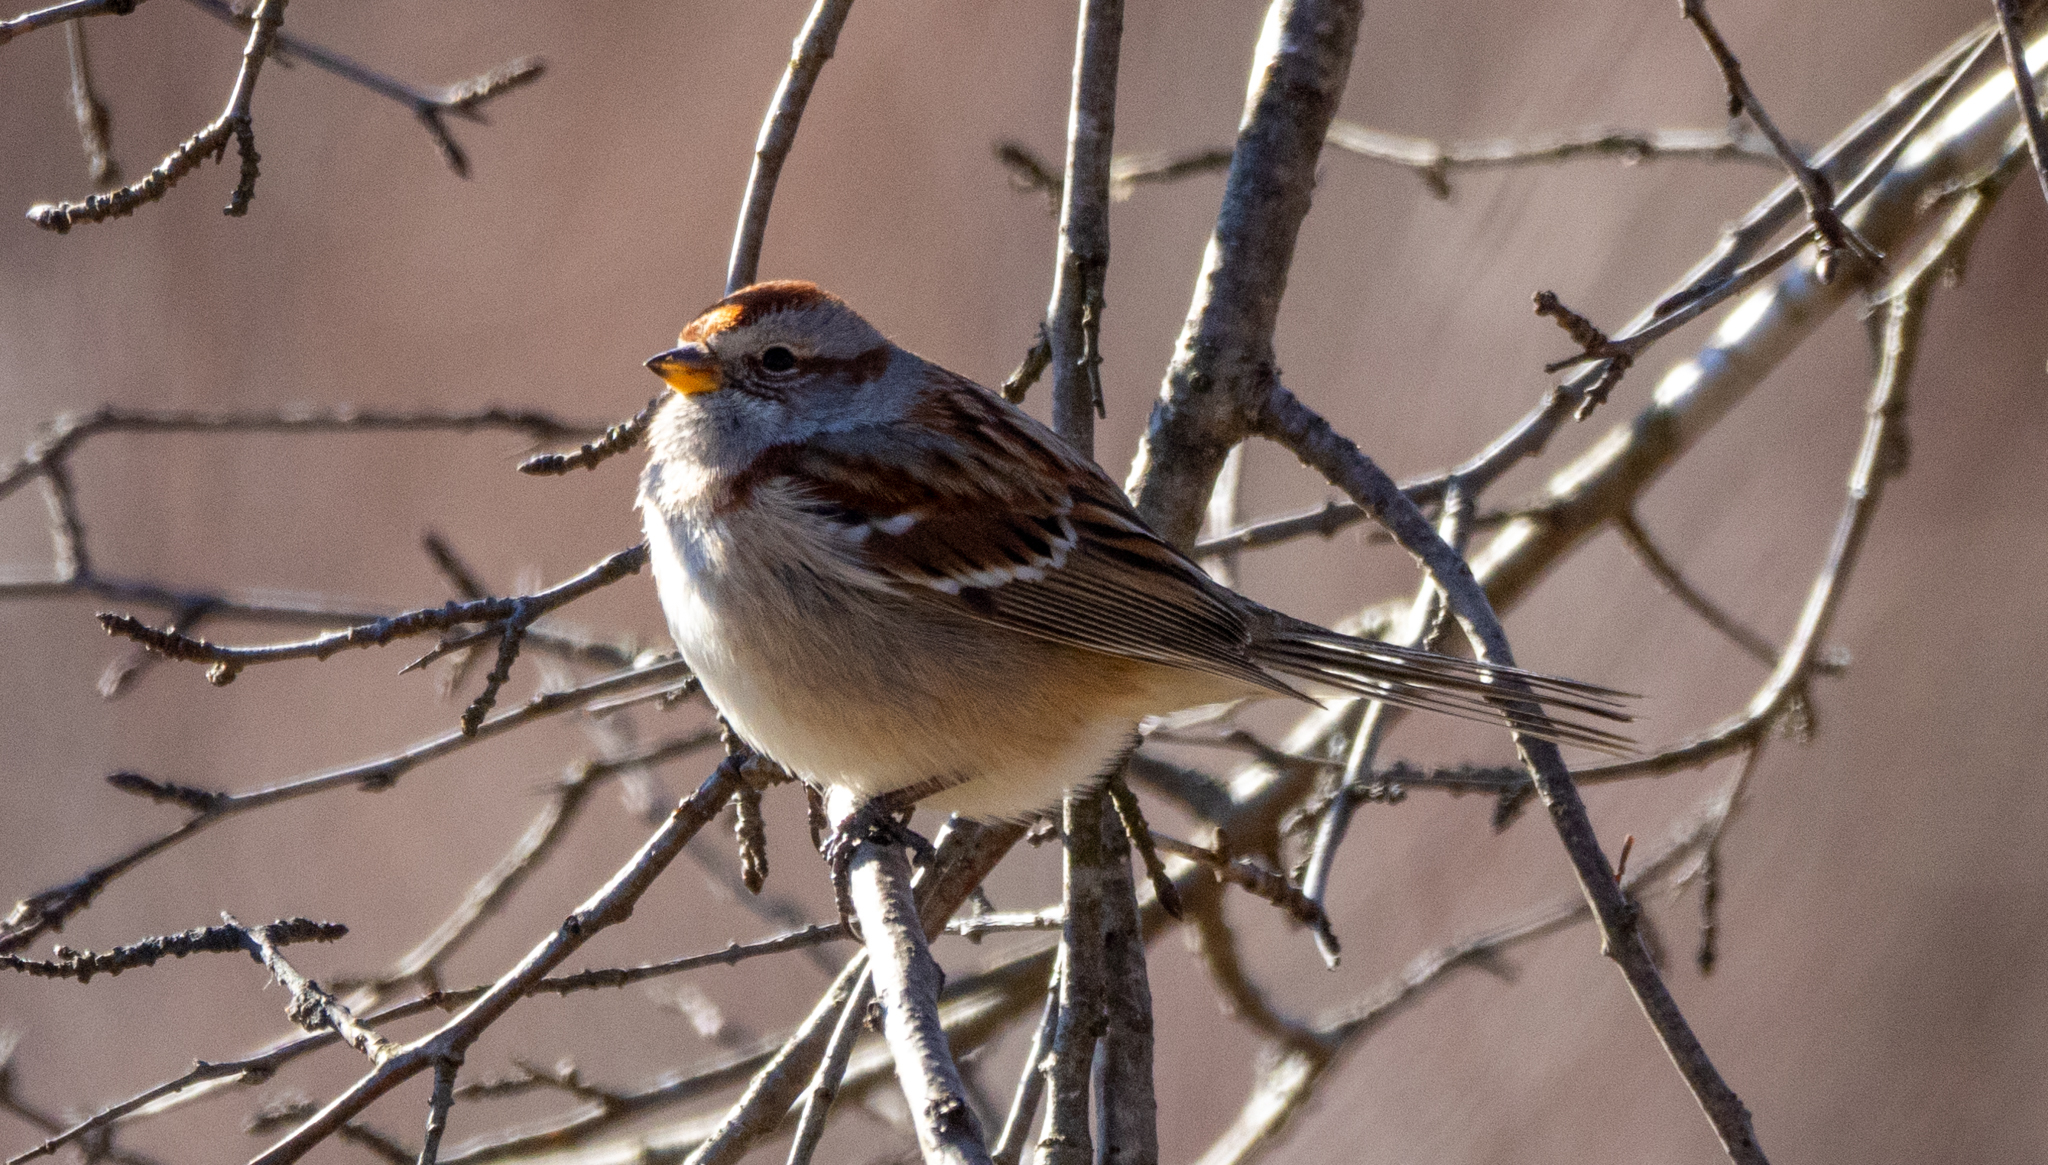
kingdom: Animalia
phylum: Chordata
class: Aves
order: Passeriformes
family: Passerellidae
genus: Spizelloides
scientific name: Spizelloides arborea
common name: American tree sparrow
